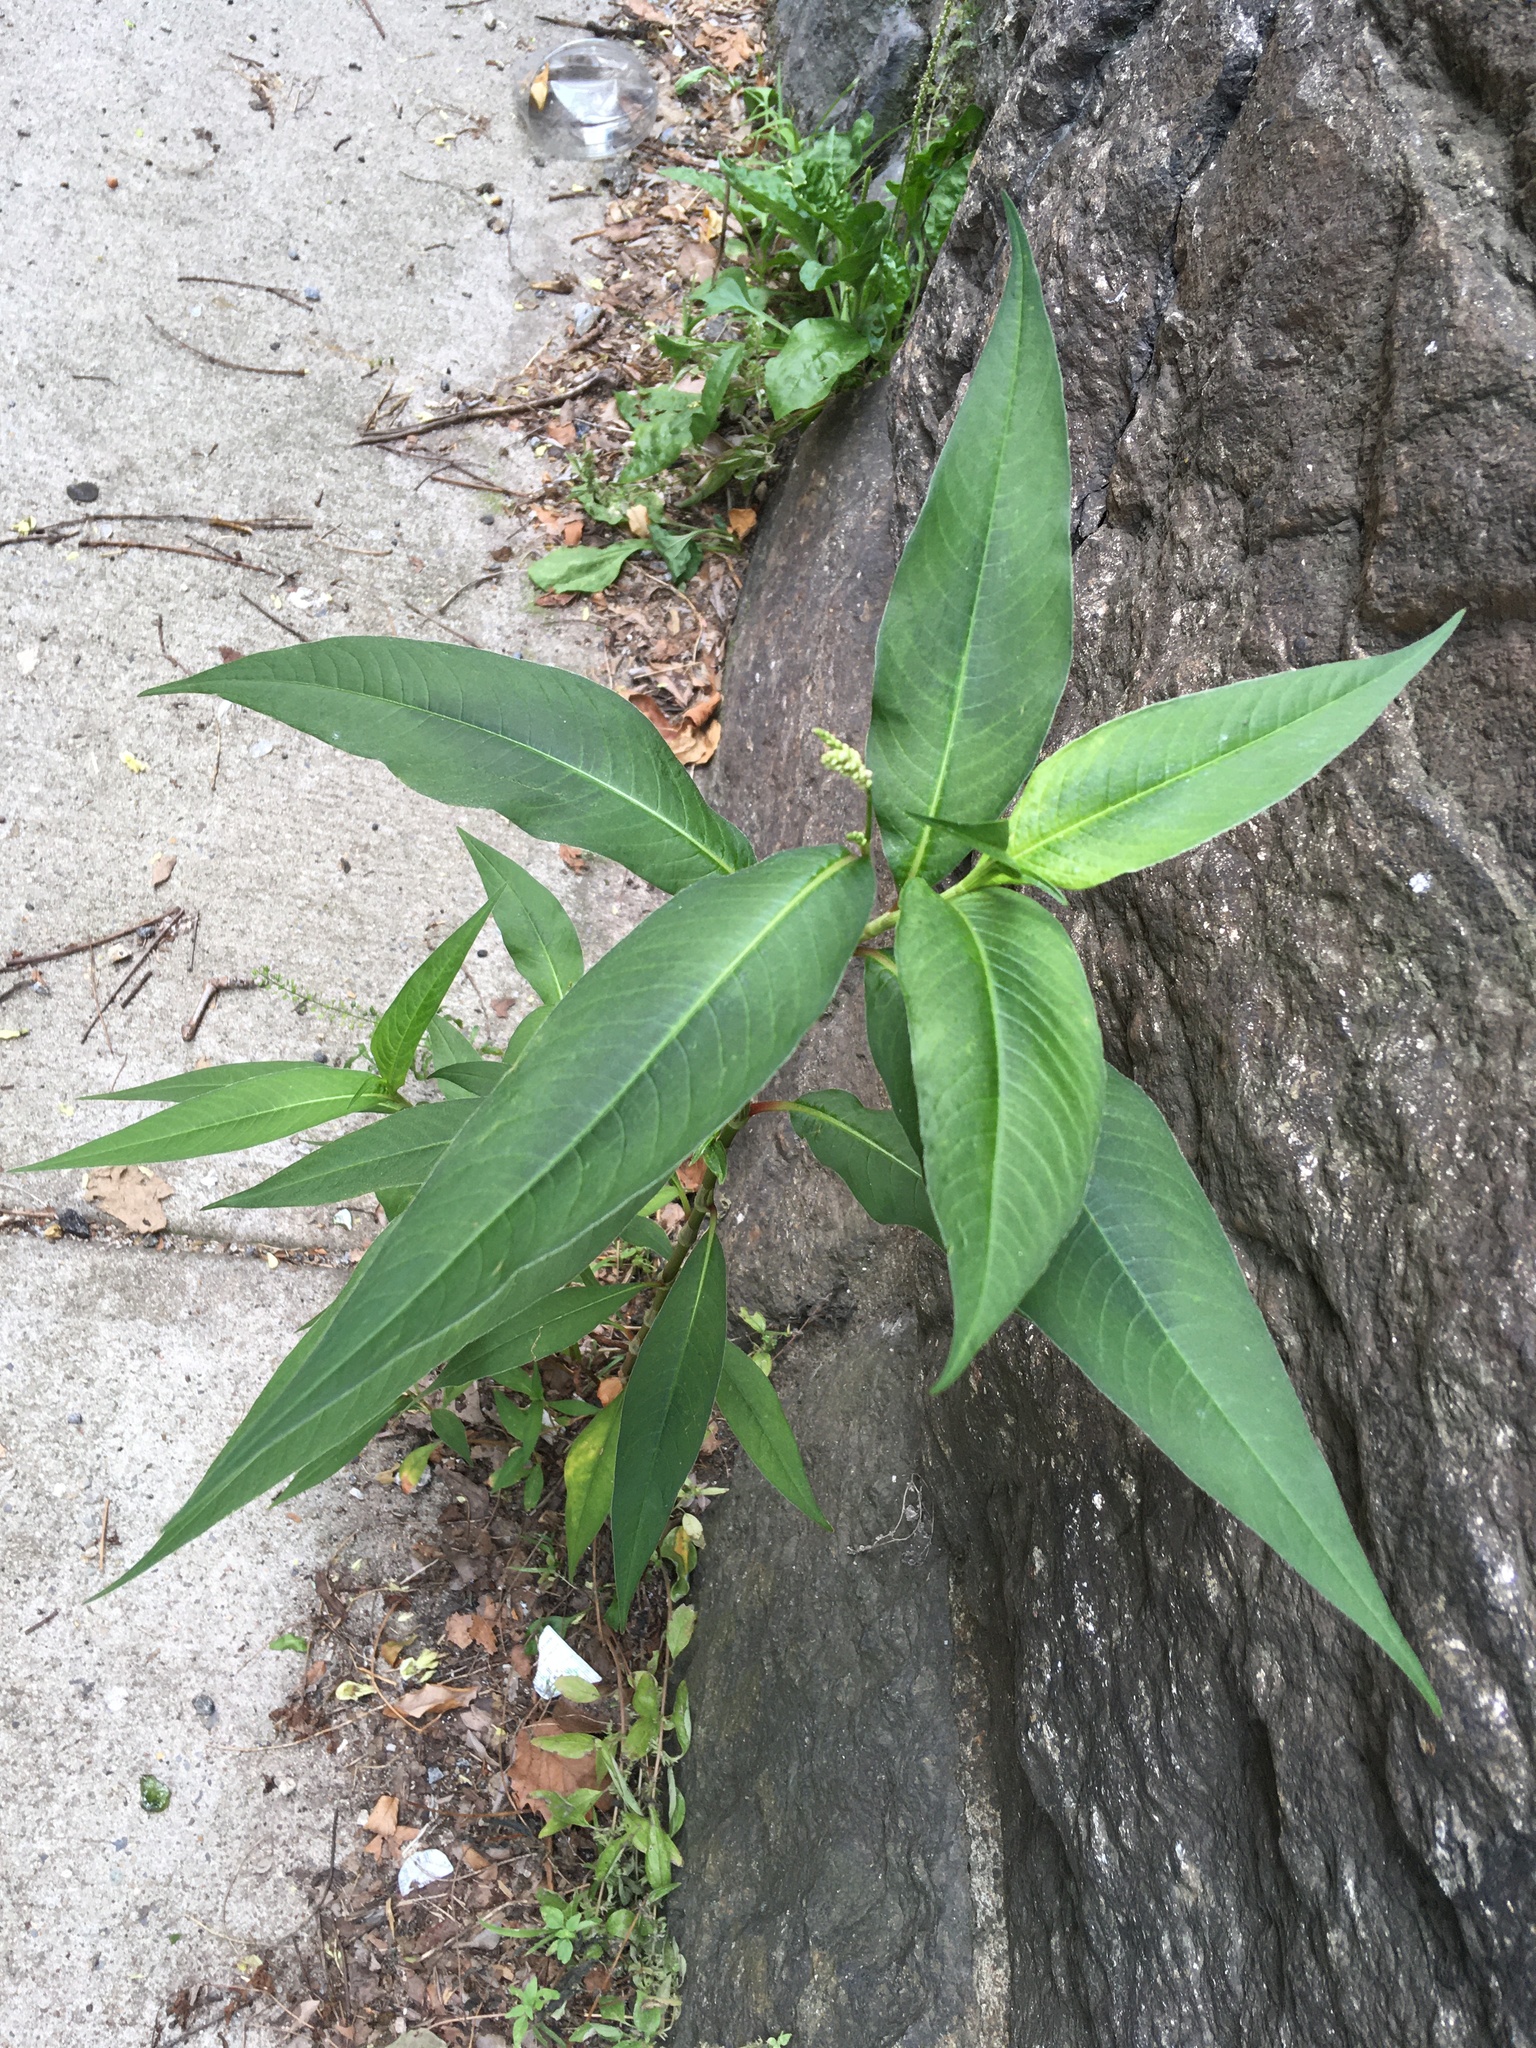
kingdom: Plantae
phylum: Tracheophyta
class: Magnoliopsida
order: Caryophyllales
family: Polygonaceae
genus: Persicaria
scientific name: Persicaria extremiorientalis
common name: Far-eastern smartweed
